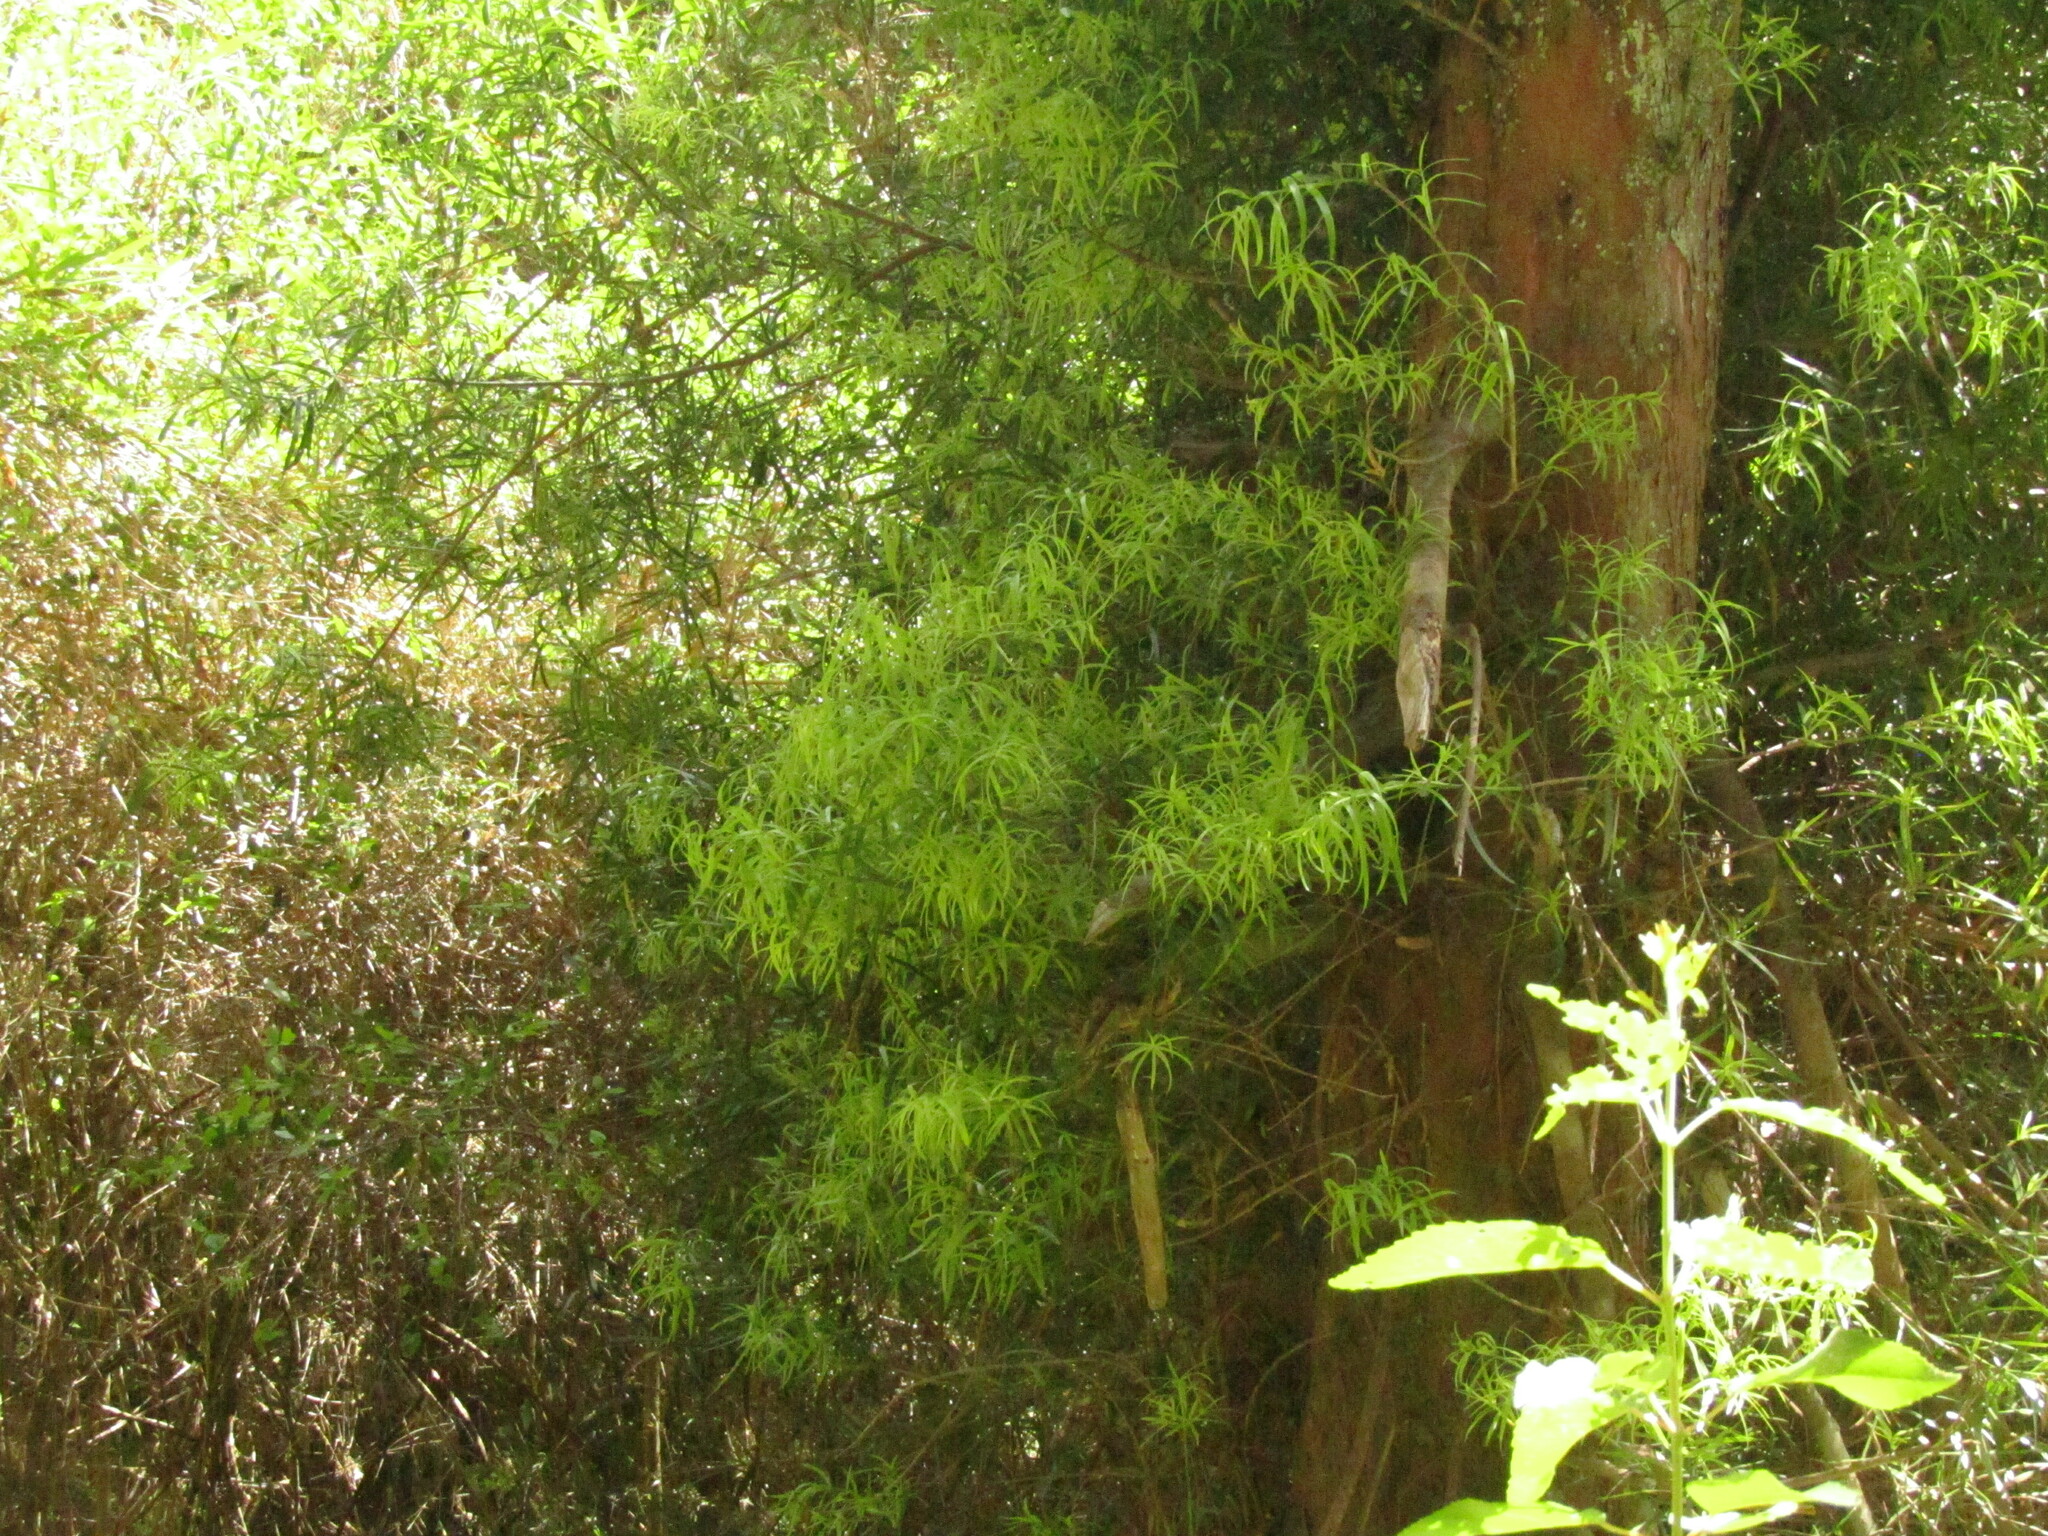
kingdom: Plantae
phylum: Tracheophyta
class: Pinopsida
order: Pinales
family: Podocarpaceae
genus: Podocarpus
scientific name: Podocarpus salignus
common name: Willow-leaf podocarp
